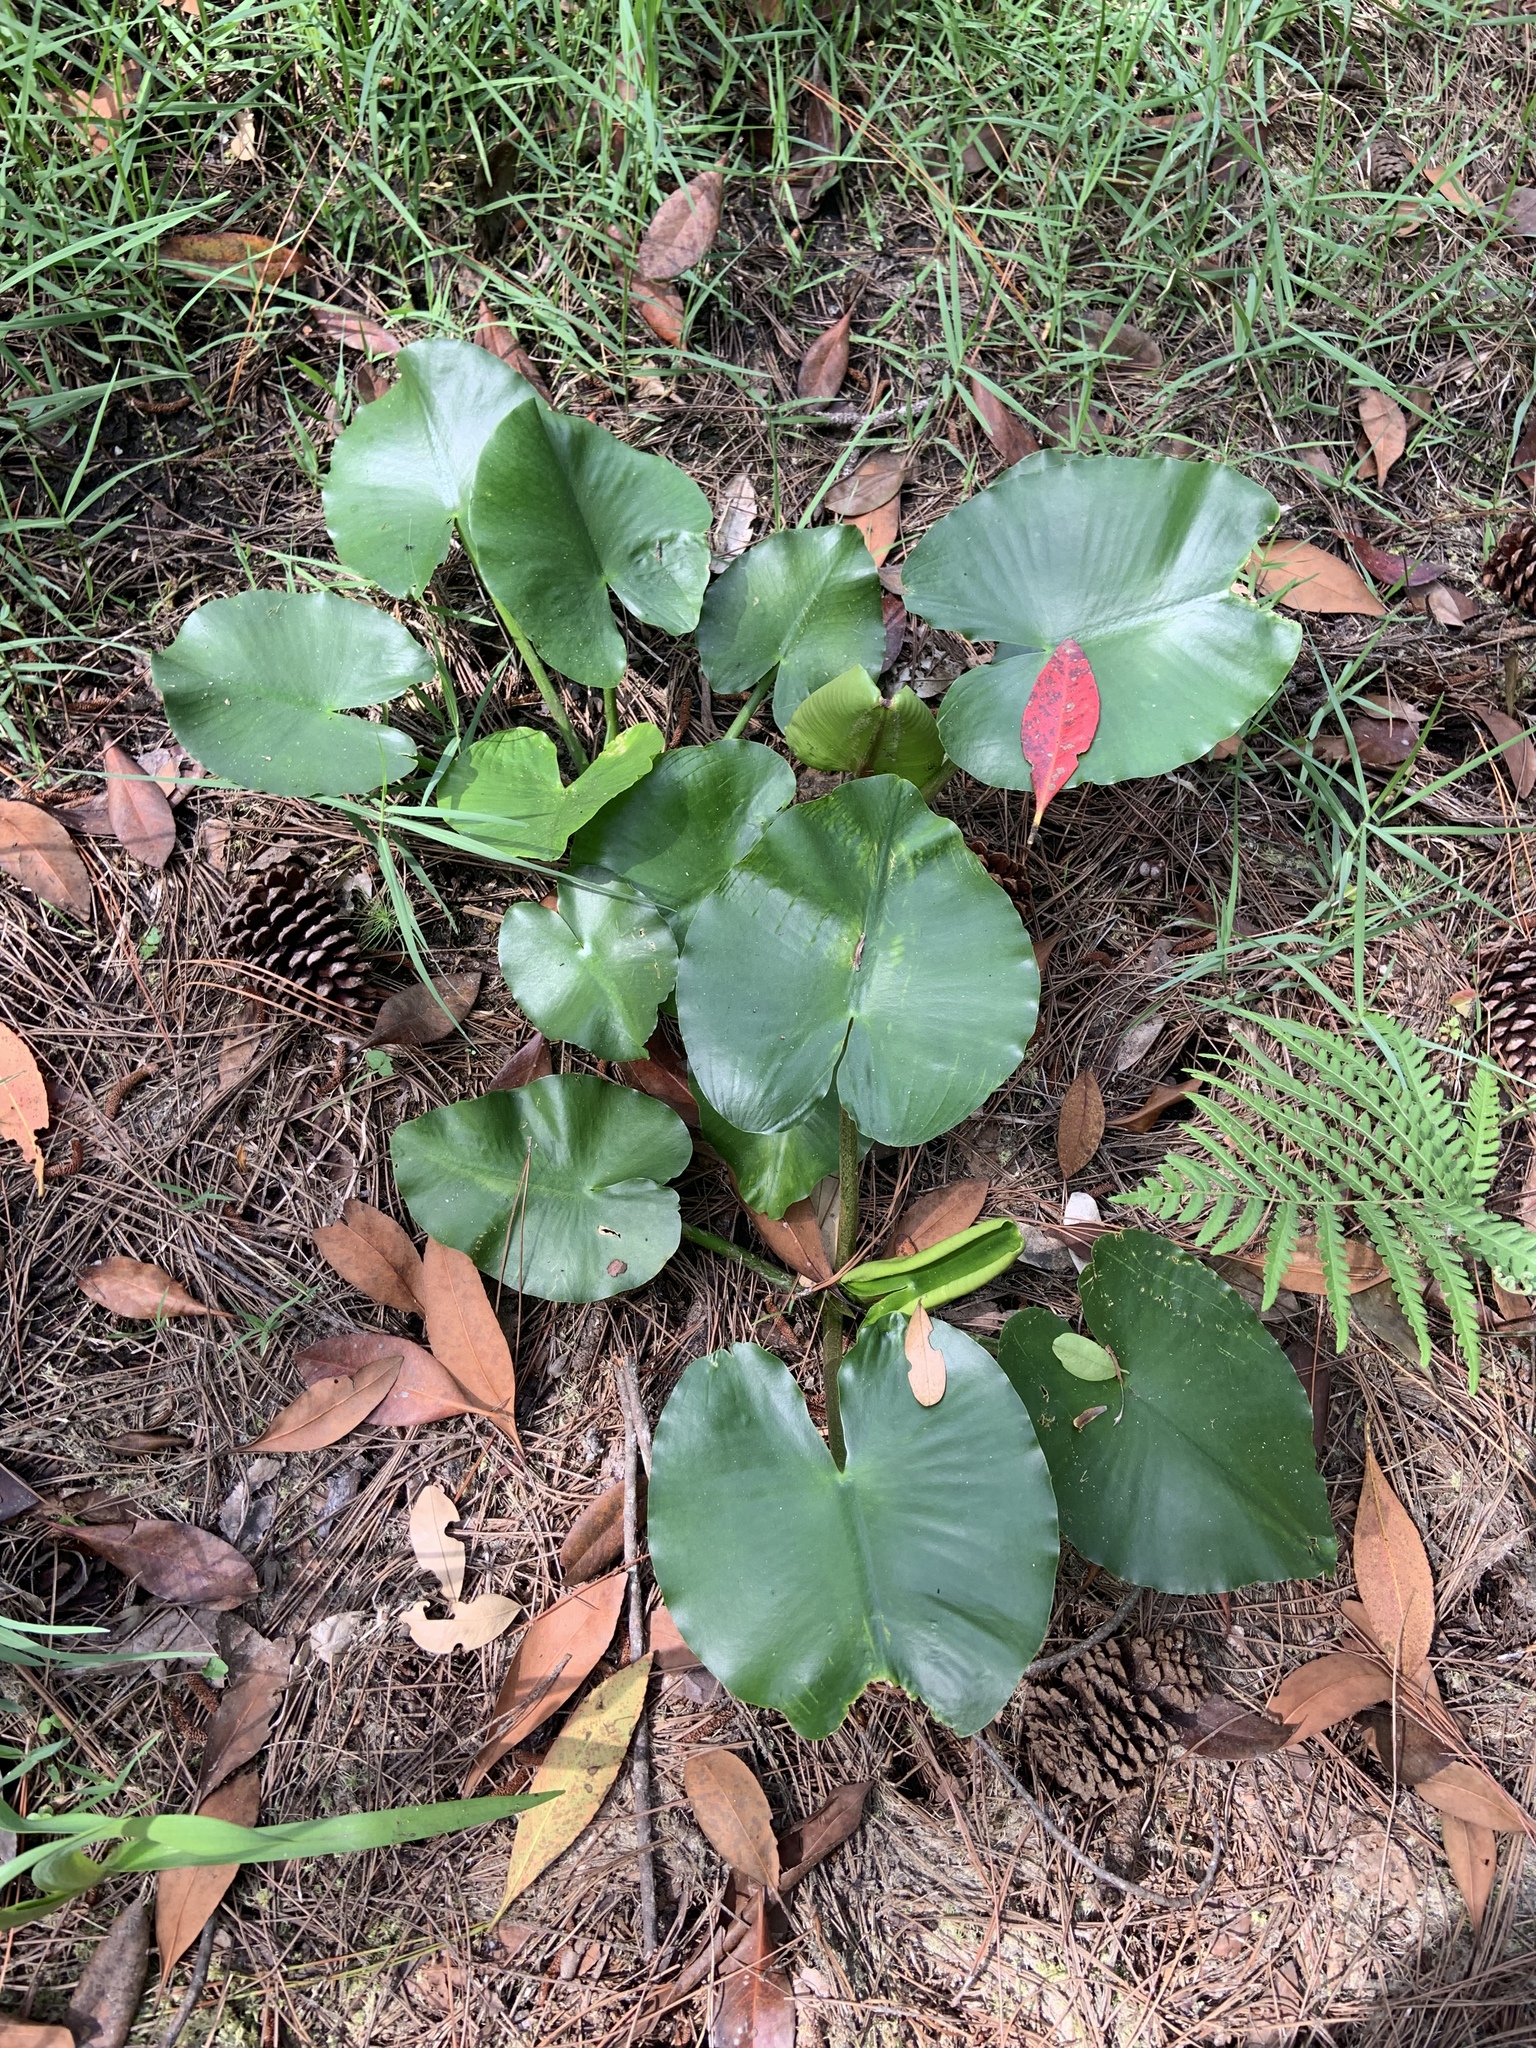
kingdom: Plantae
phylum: Tracheophyta
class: Magnoliopsida
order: Nymphaeales
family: Nymphaeaceae
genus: Nuphar
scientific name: Nuphar advena
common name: Spatter-dock
